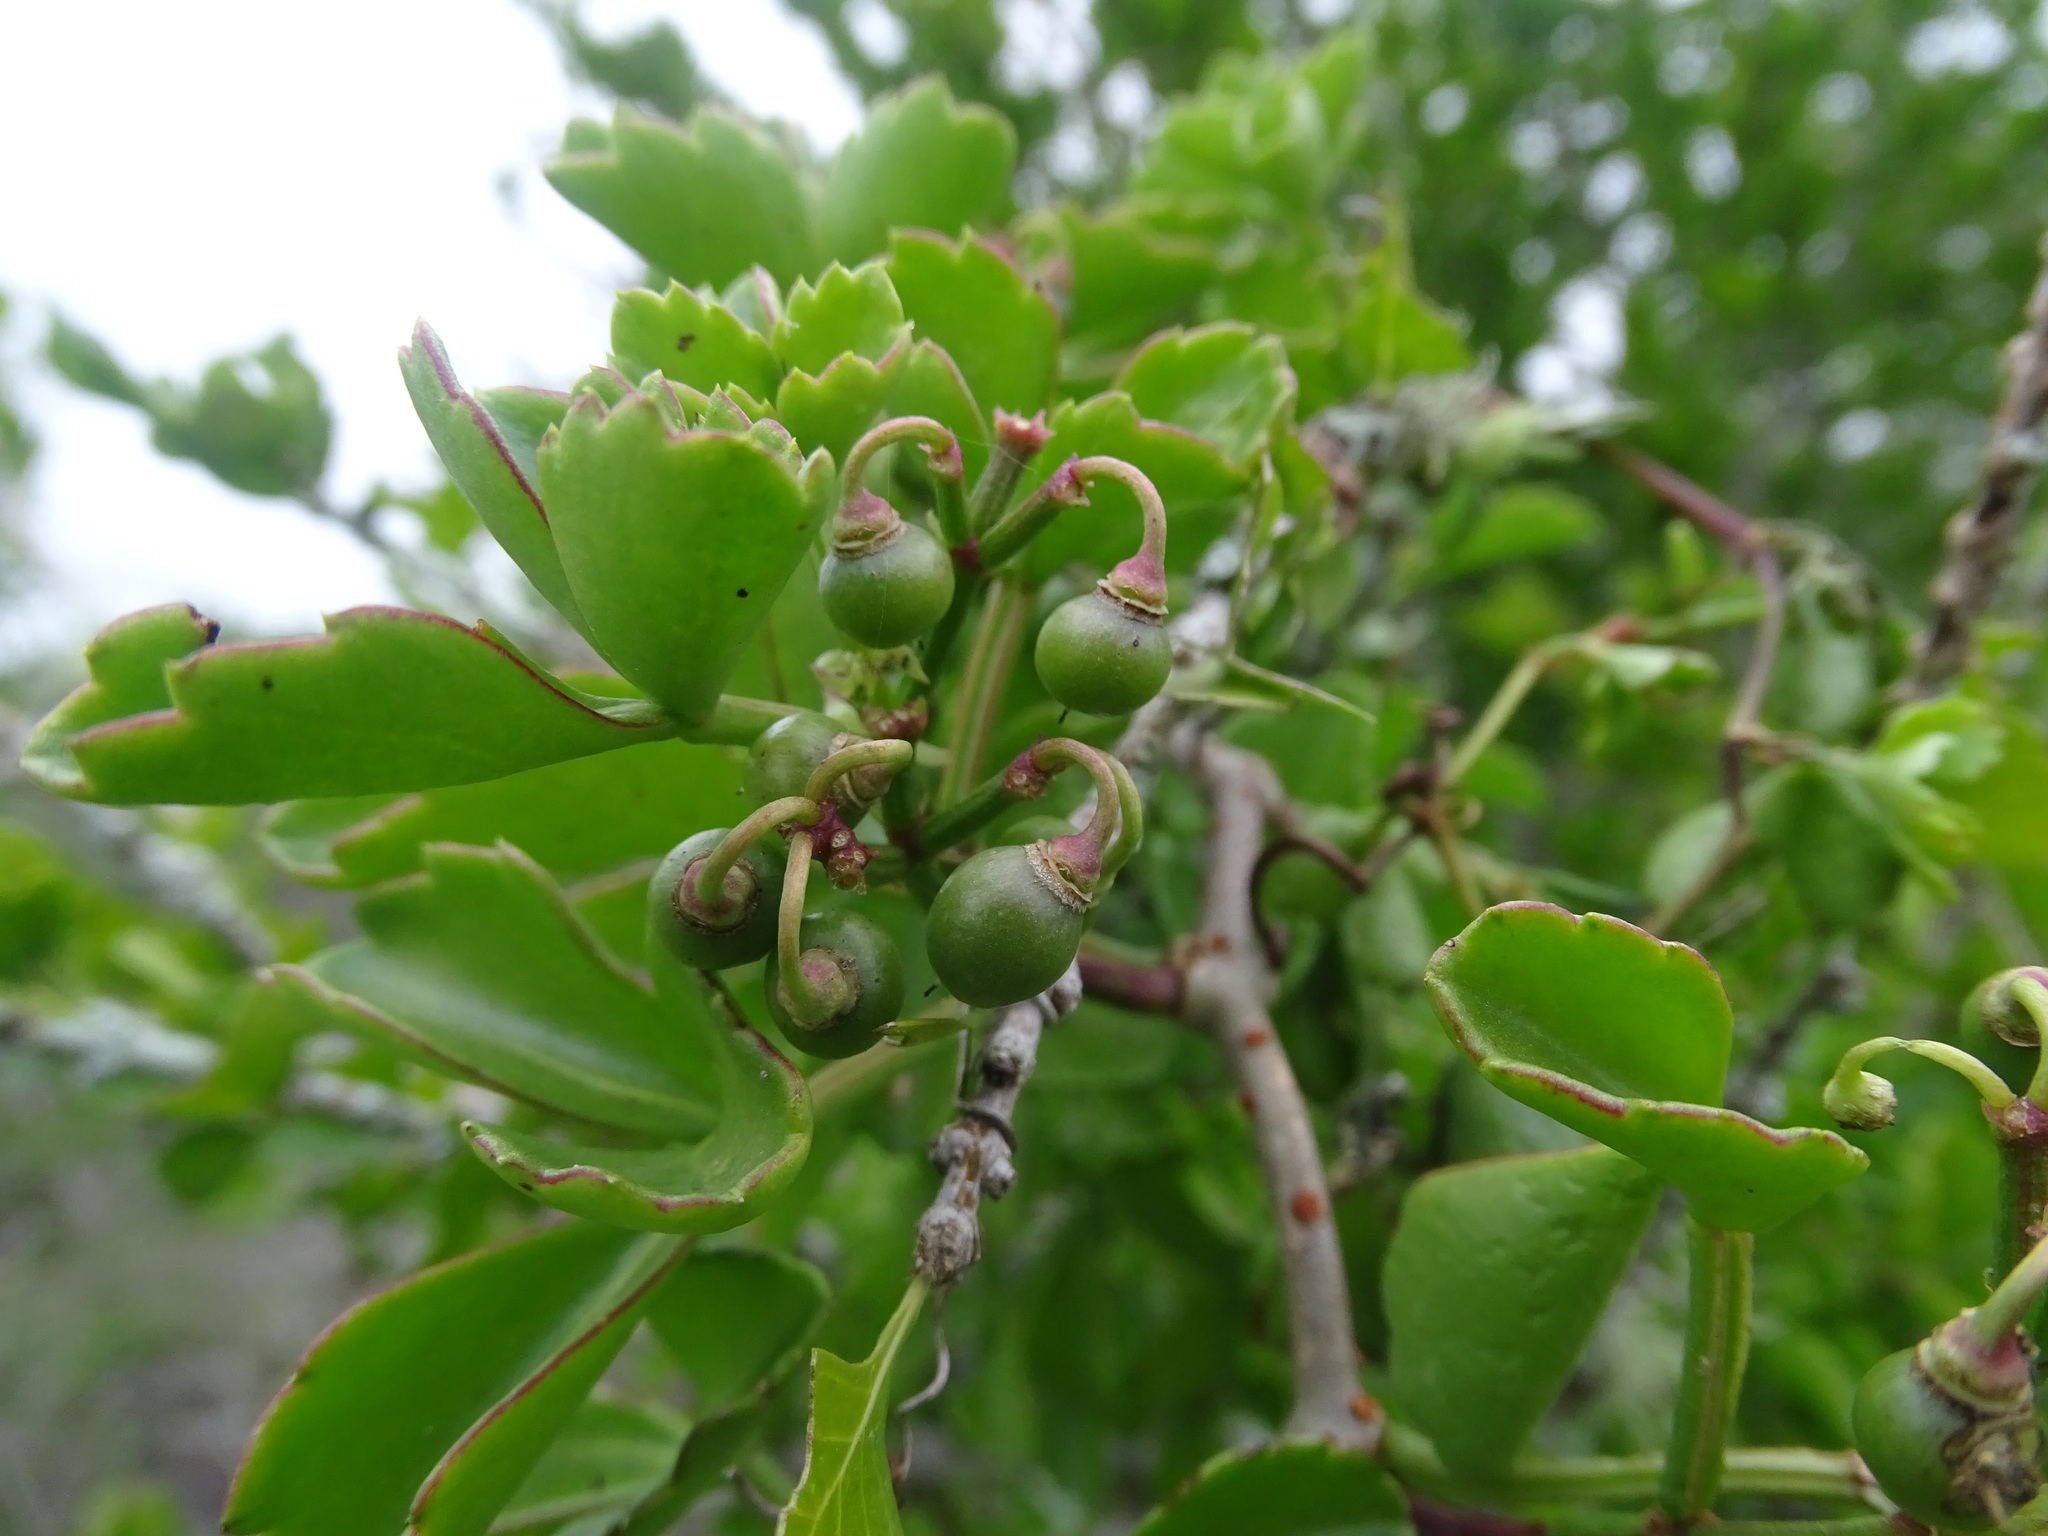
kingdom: Plantae
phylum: Tracheophyta
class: Magnoliopsida
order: Vitales
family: Vitaceae
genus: Cissus
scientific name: Cissus trifoliata
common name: Vine-sorrel
